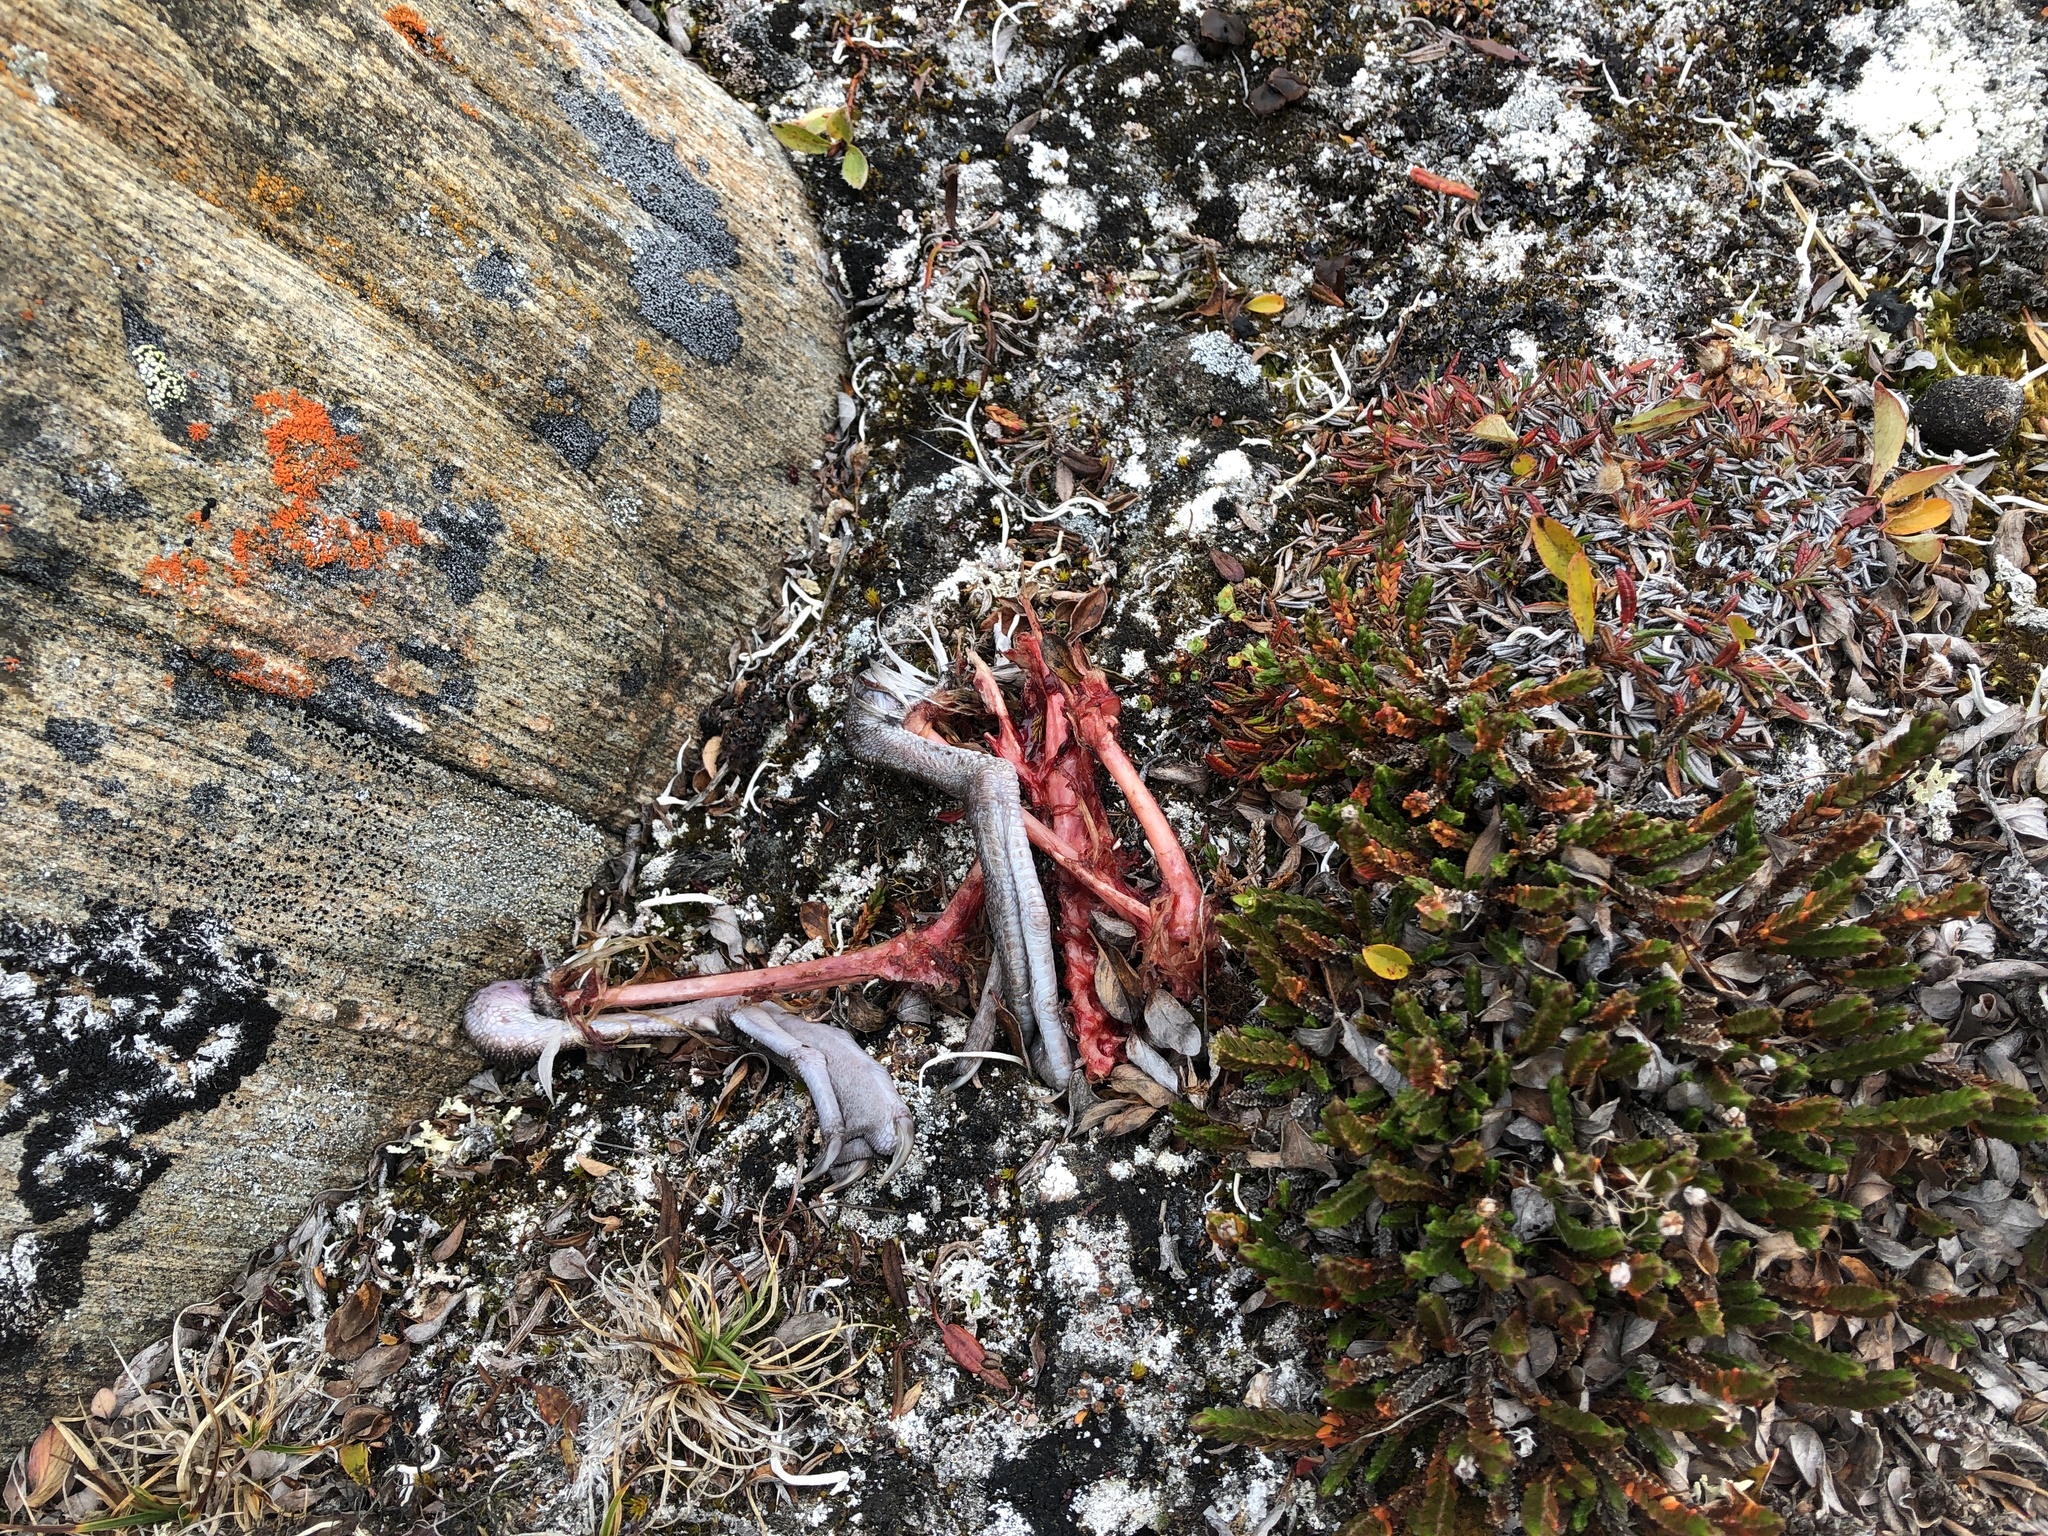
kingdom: Animalia
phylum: Chordata
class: Aves
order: Procellariiformes
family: Procellariidae
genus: Fulmarus
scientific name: Fulmarus glacialis
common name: Northern fulmar
